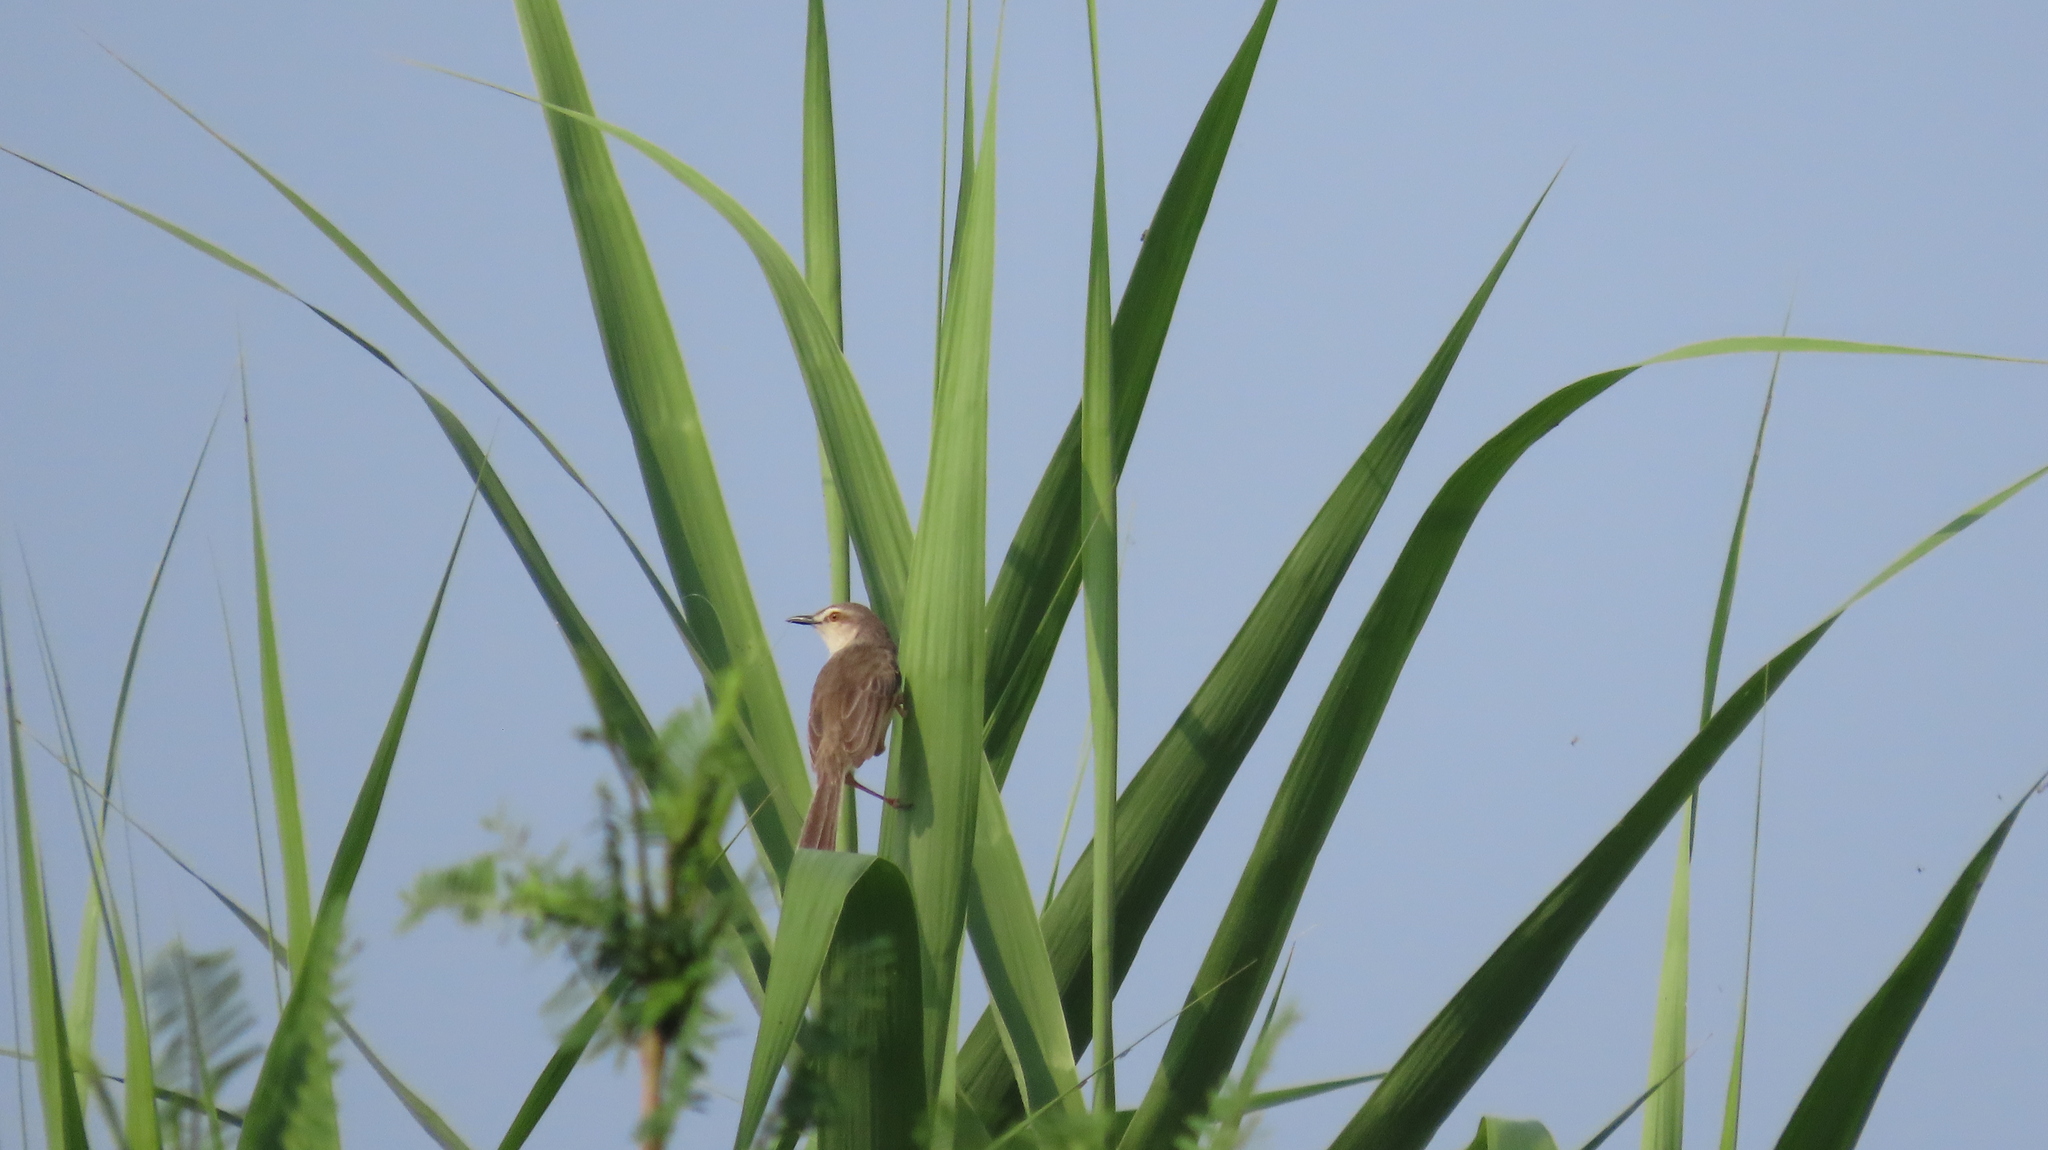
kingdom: Animalia
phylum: Chordata
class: Aves
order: Passeriformes
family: Cisticolidae
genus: Prinia
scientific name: Prinia inornata
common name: Plain prinia
